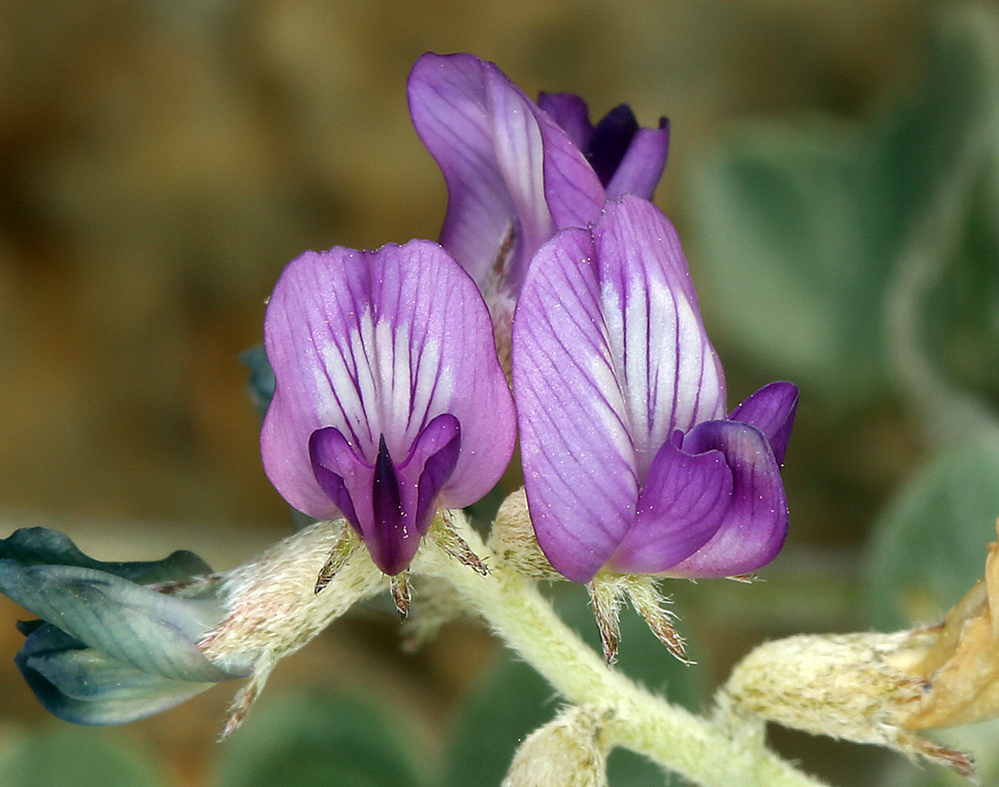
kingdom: Plantae
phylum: Tracheophyta
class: Magnoliopsida
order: Fabales
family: Fabaceae
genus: Astragalus
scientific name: Astragalus mohavensis
